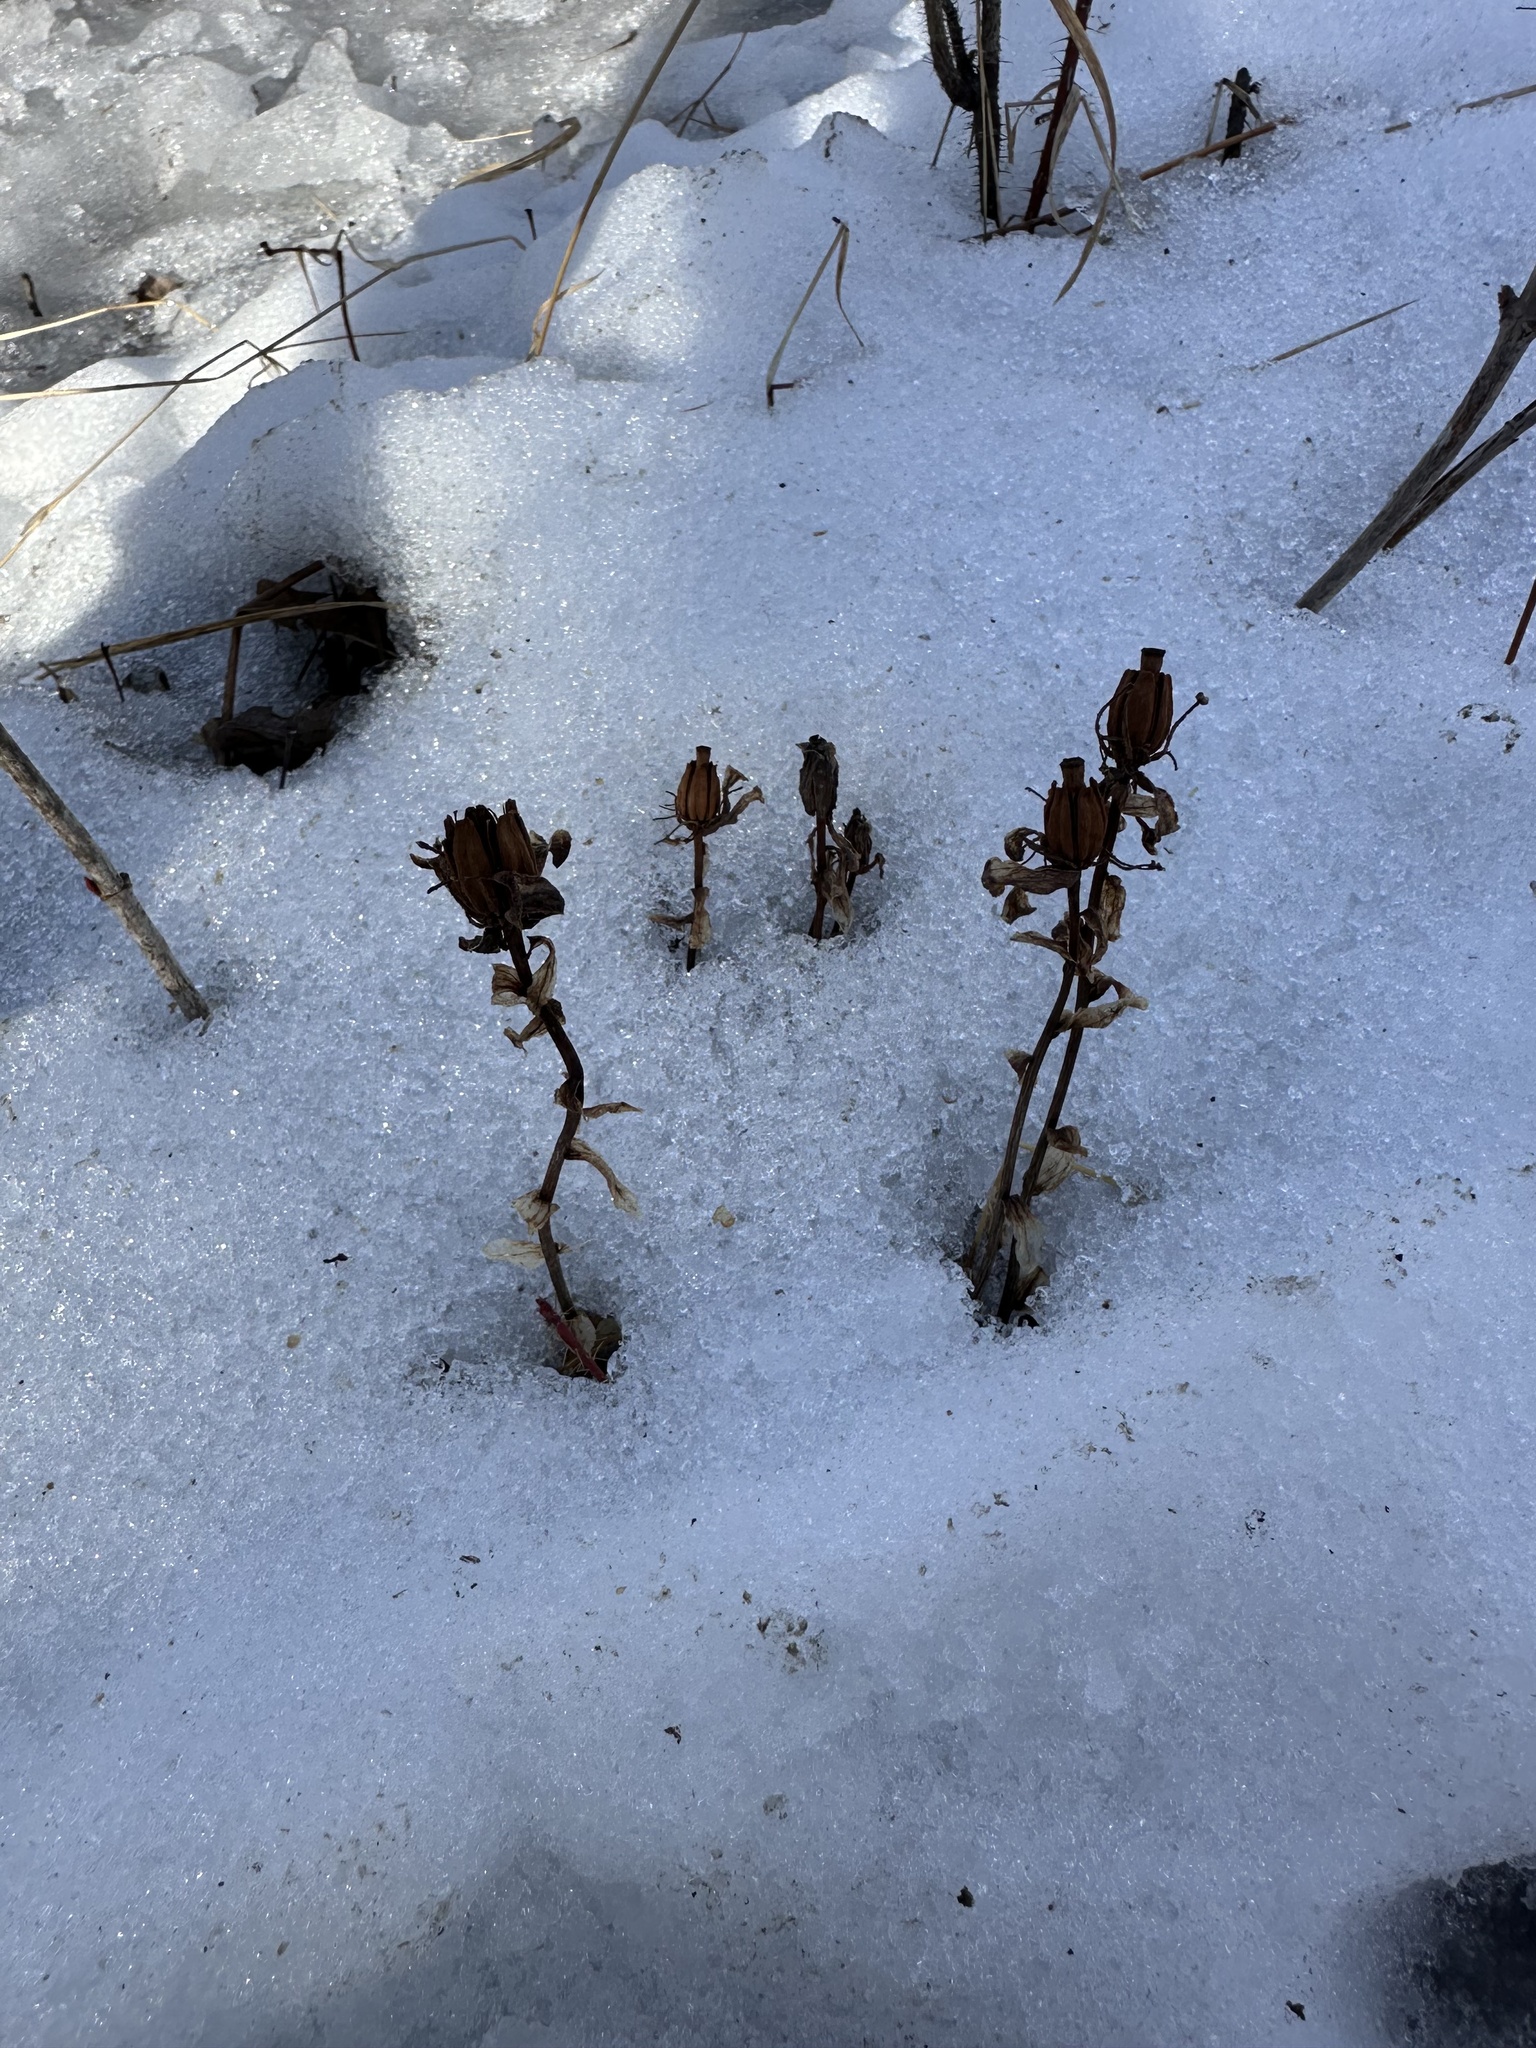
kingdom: Plantae
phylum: Tracheophyta
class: Magnoliopsida
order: Ericales
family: Ericaceae
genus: Monotropa
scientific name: Monotropa uniflora
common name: Convulsion root
